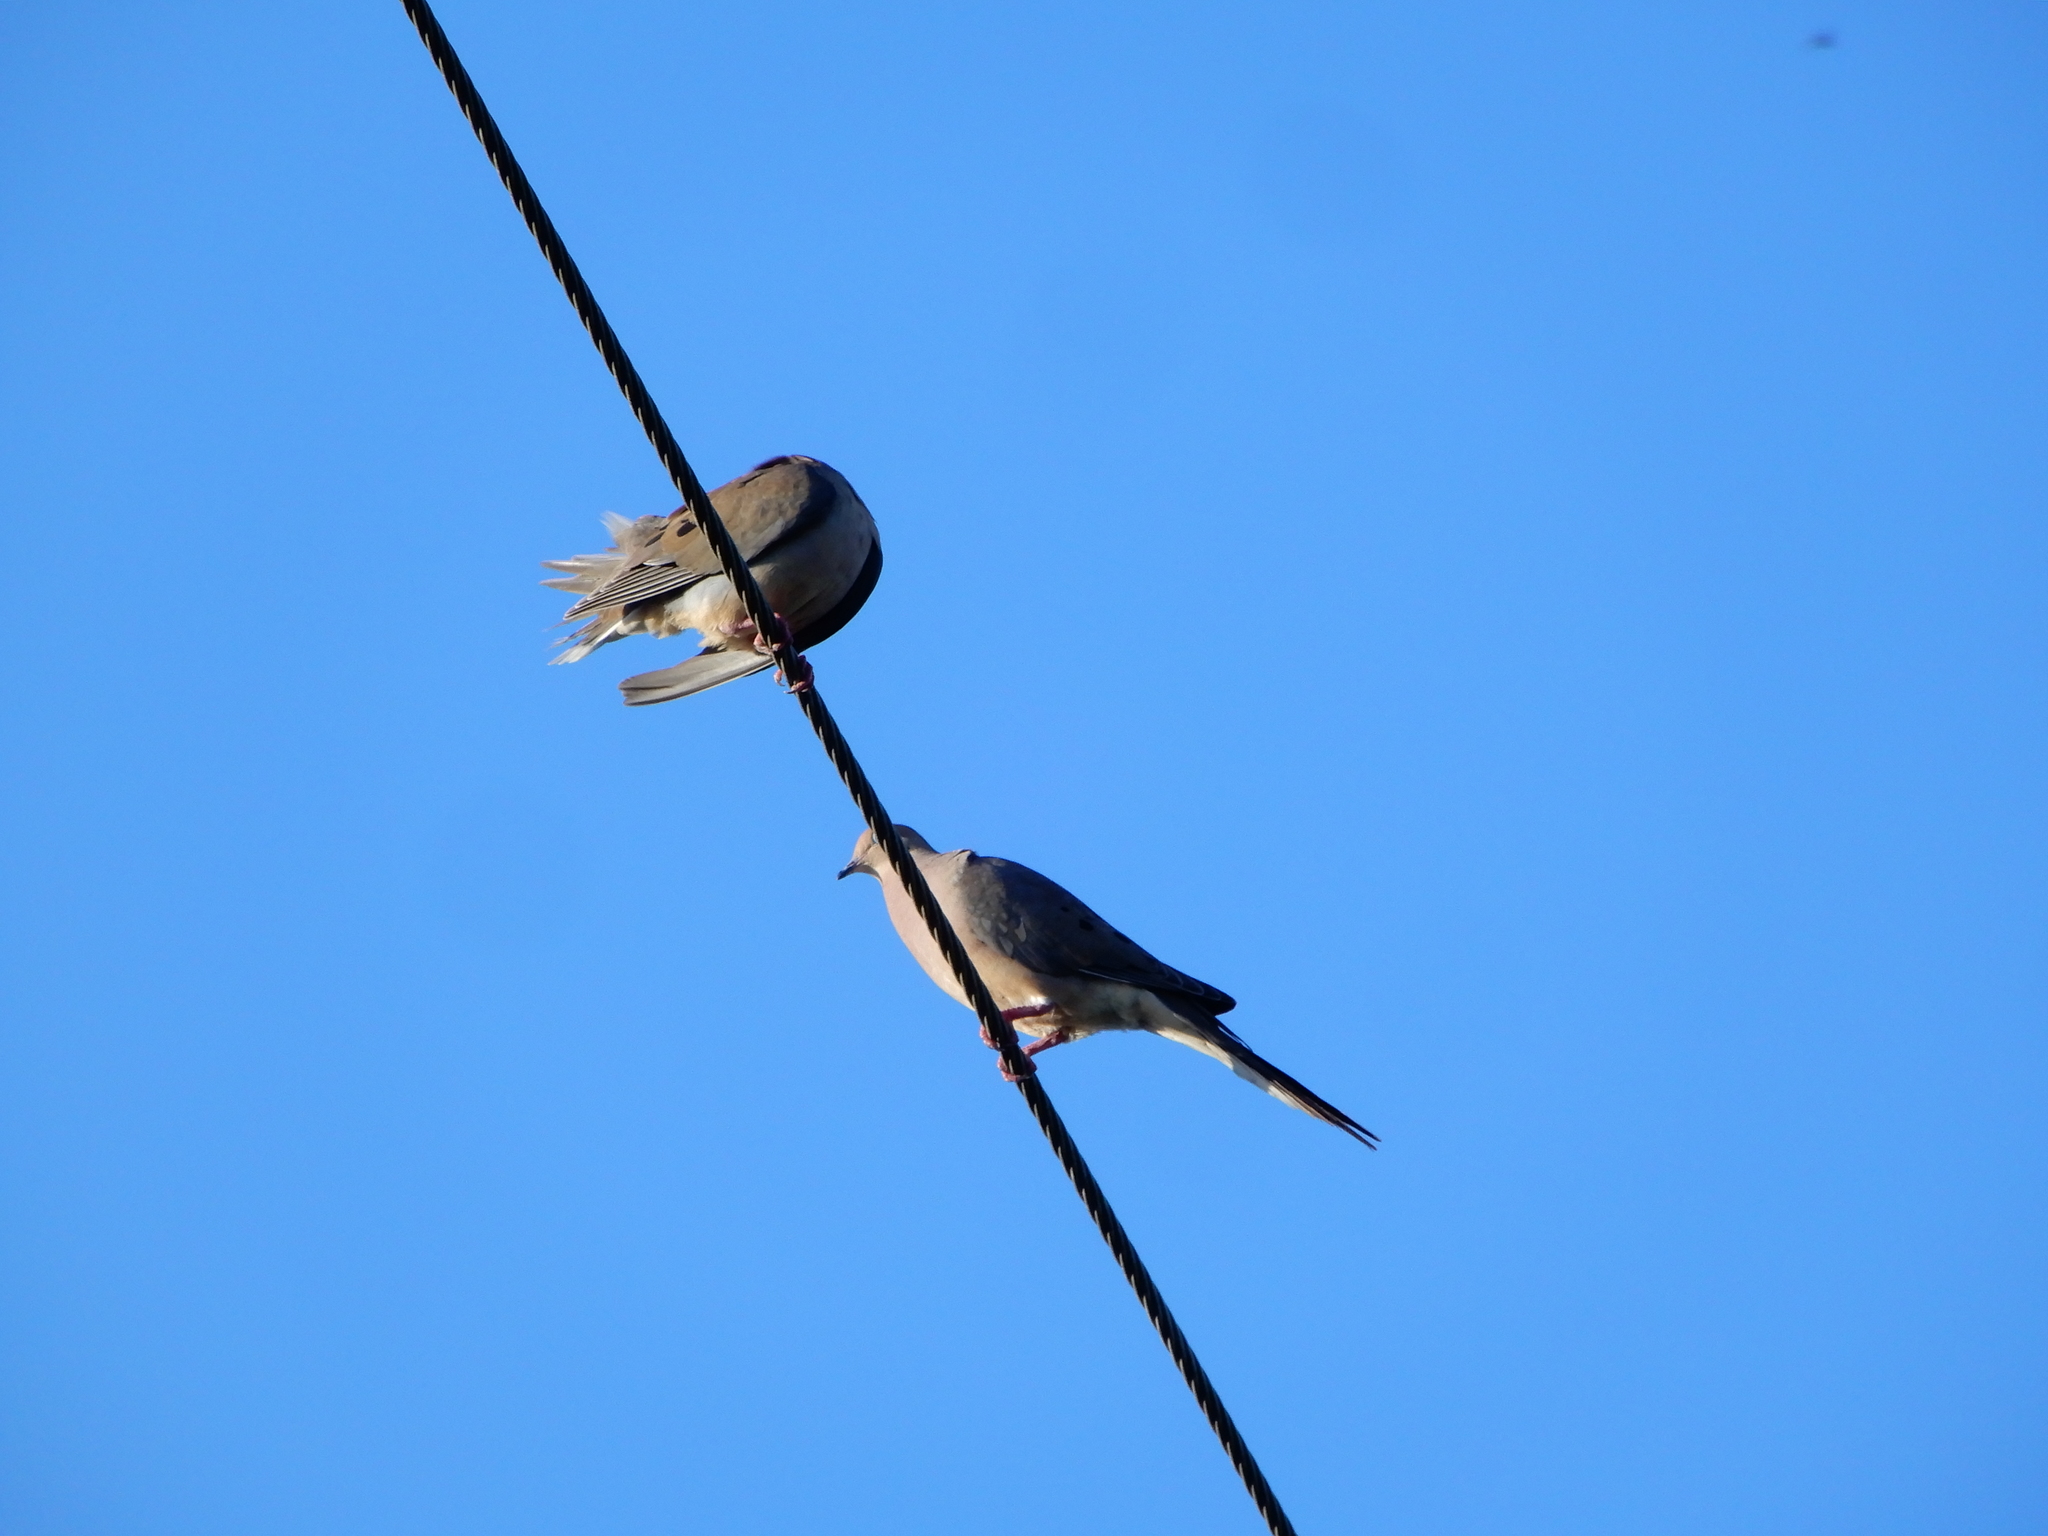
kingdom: Animalia
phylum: Chordata
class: Aves
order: Columbiformes
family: Columbidae
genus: Zenaida
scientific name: Zenaida macroura
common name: Mourning dove
